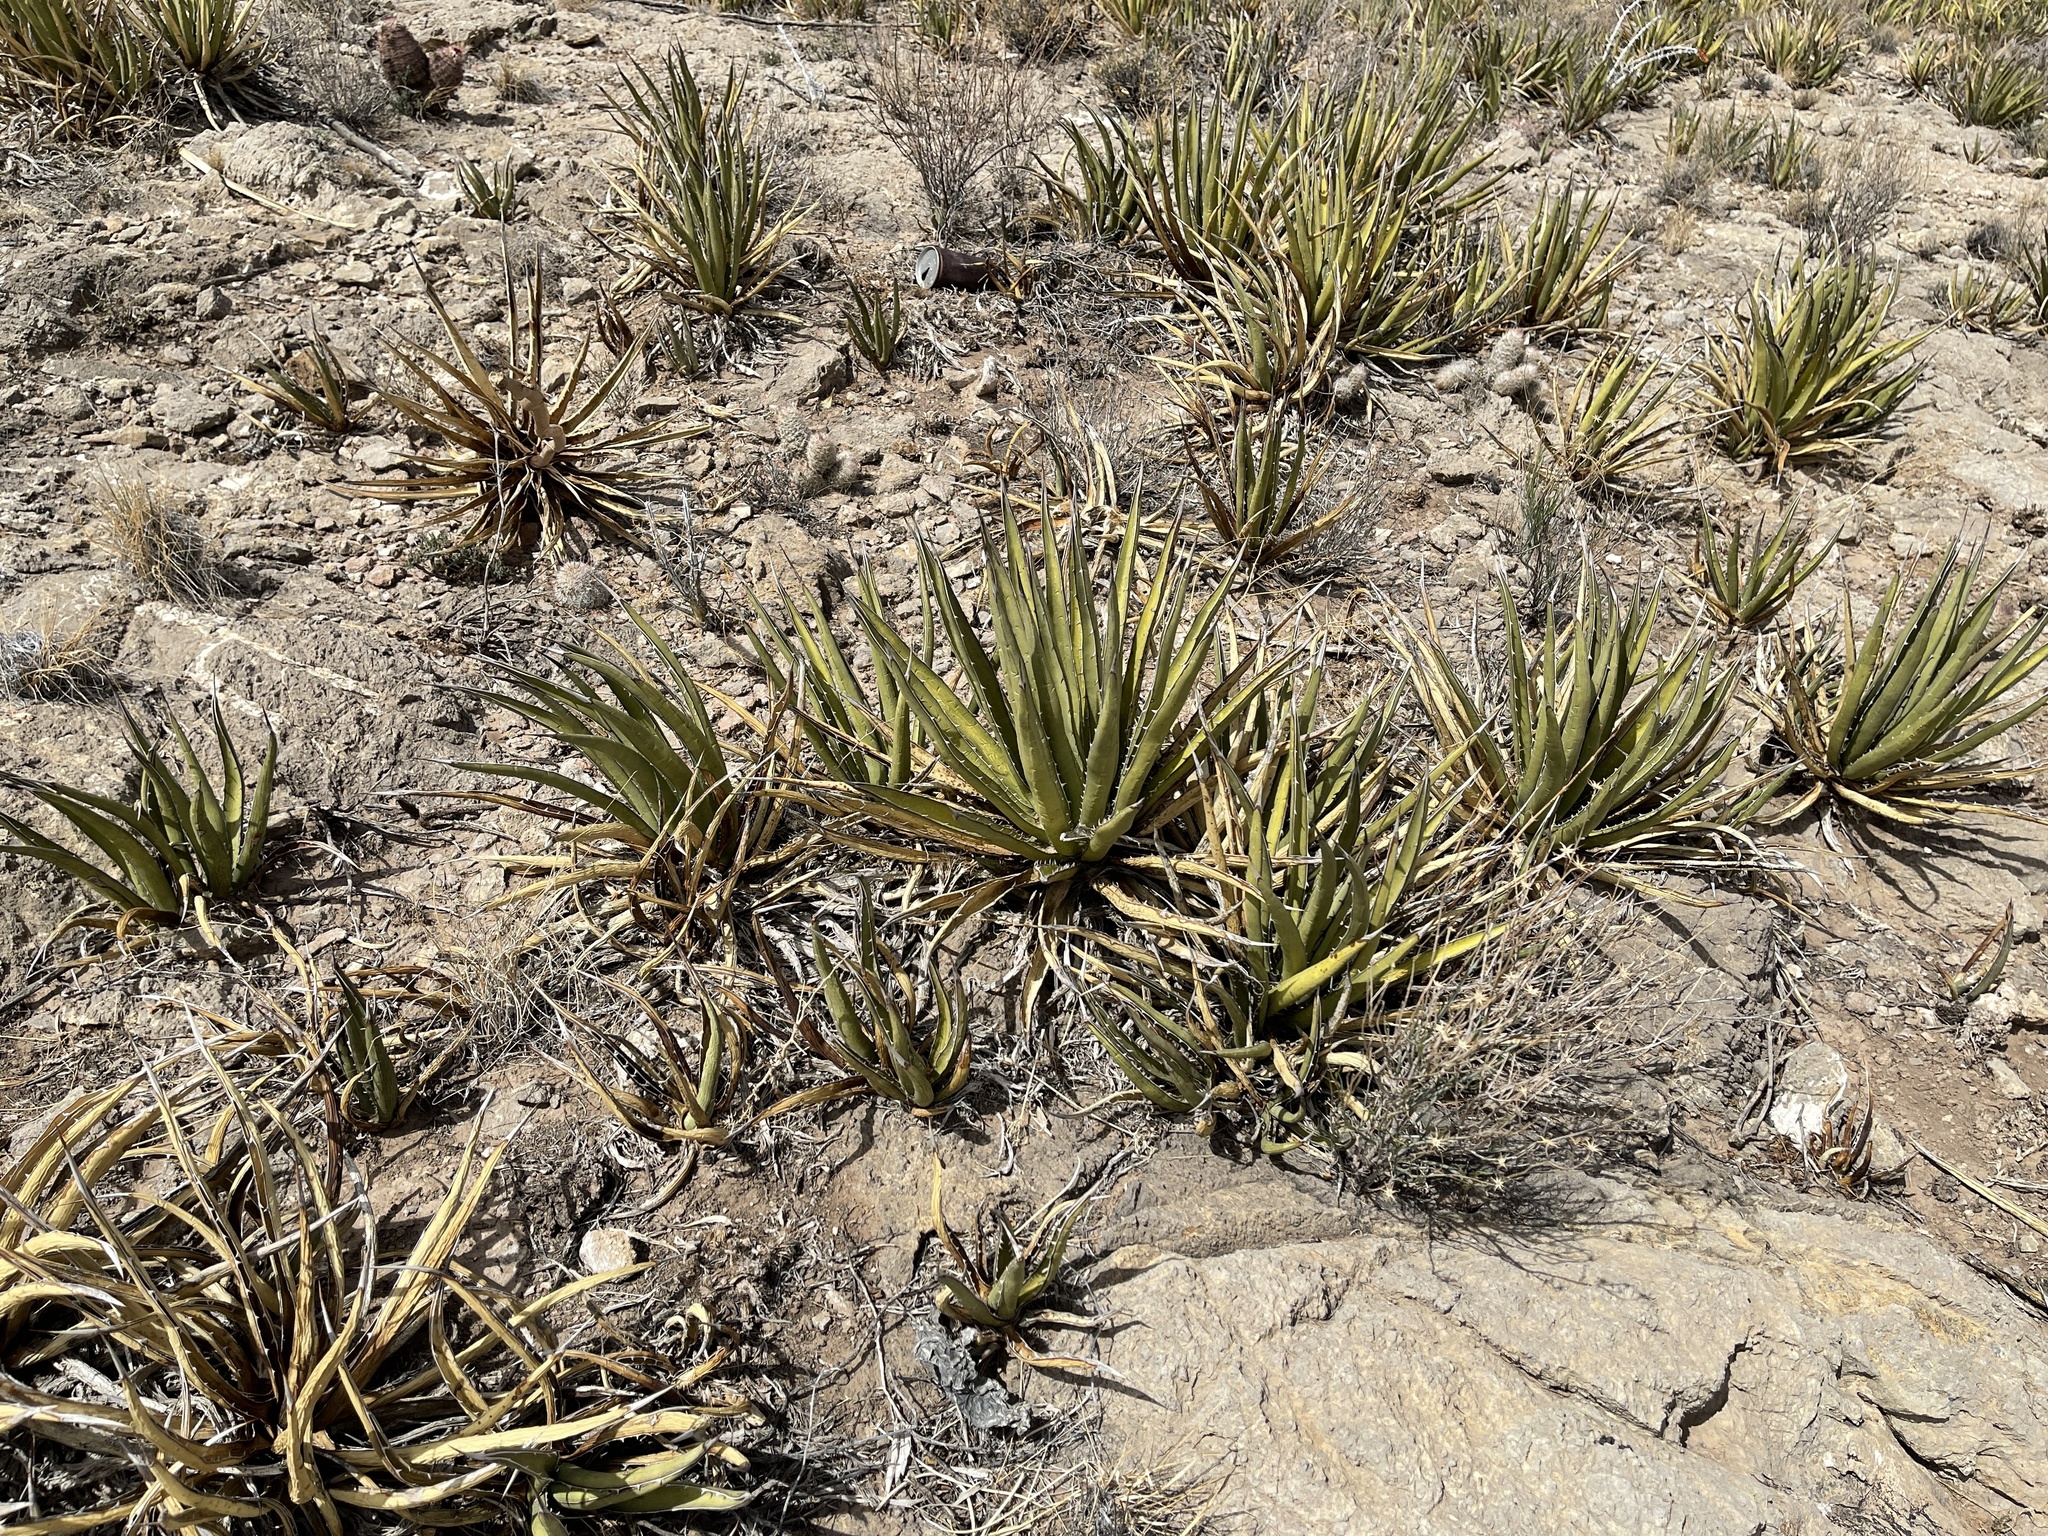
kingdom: Plantae
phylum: Tracheophyta
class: Liliopsida
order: Asparagales
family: Asparagaceae
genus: Agave
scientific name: Agave lechuguilla
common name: Lecheguilla agave
